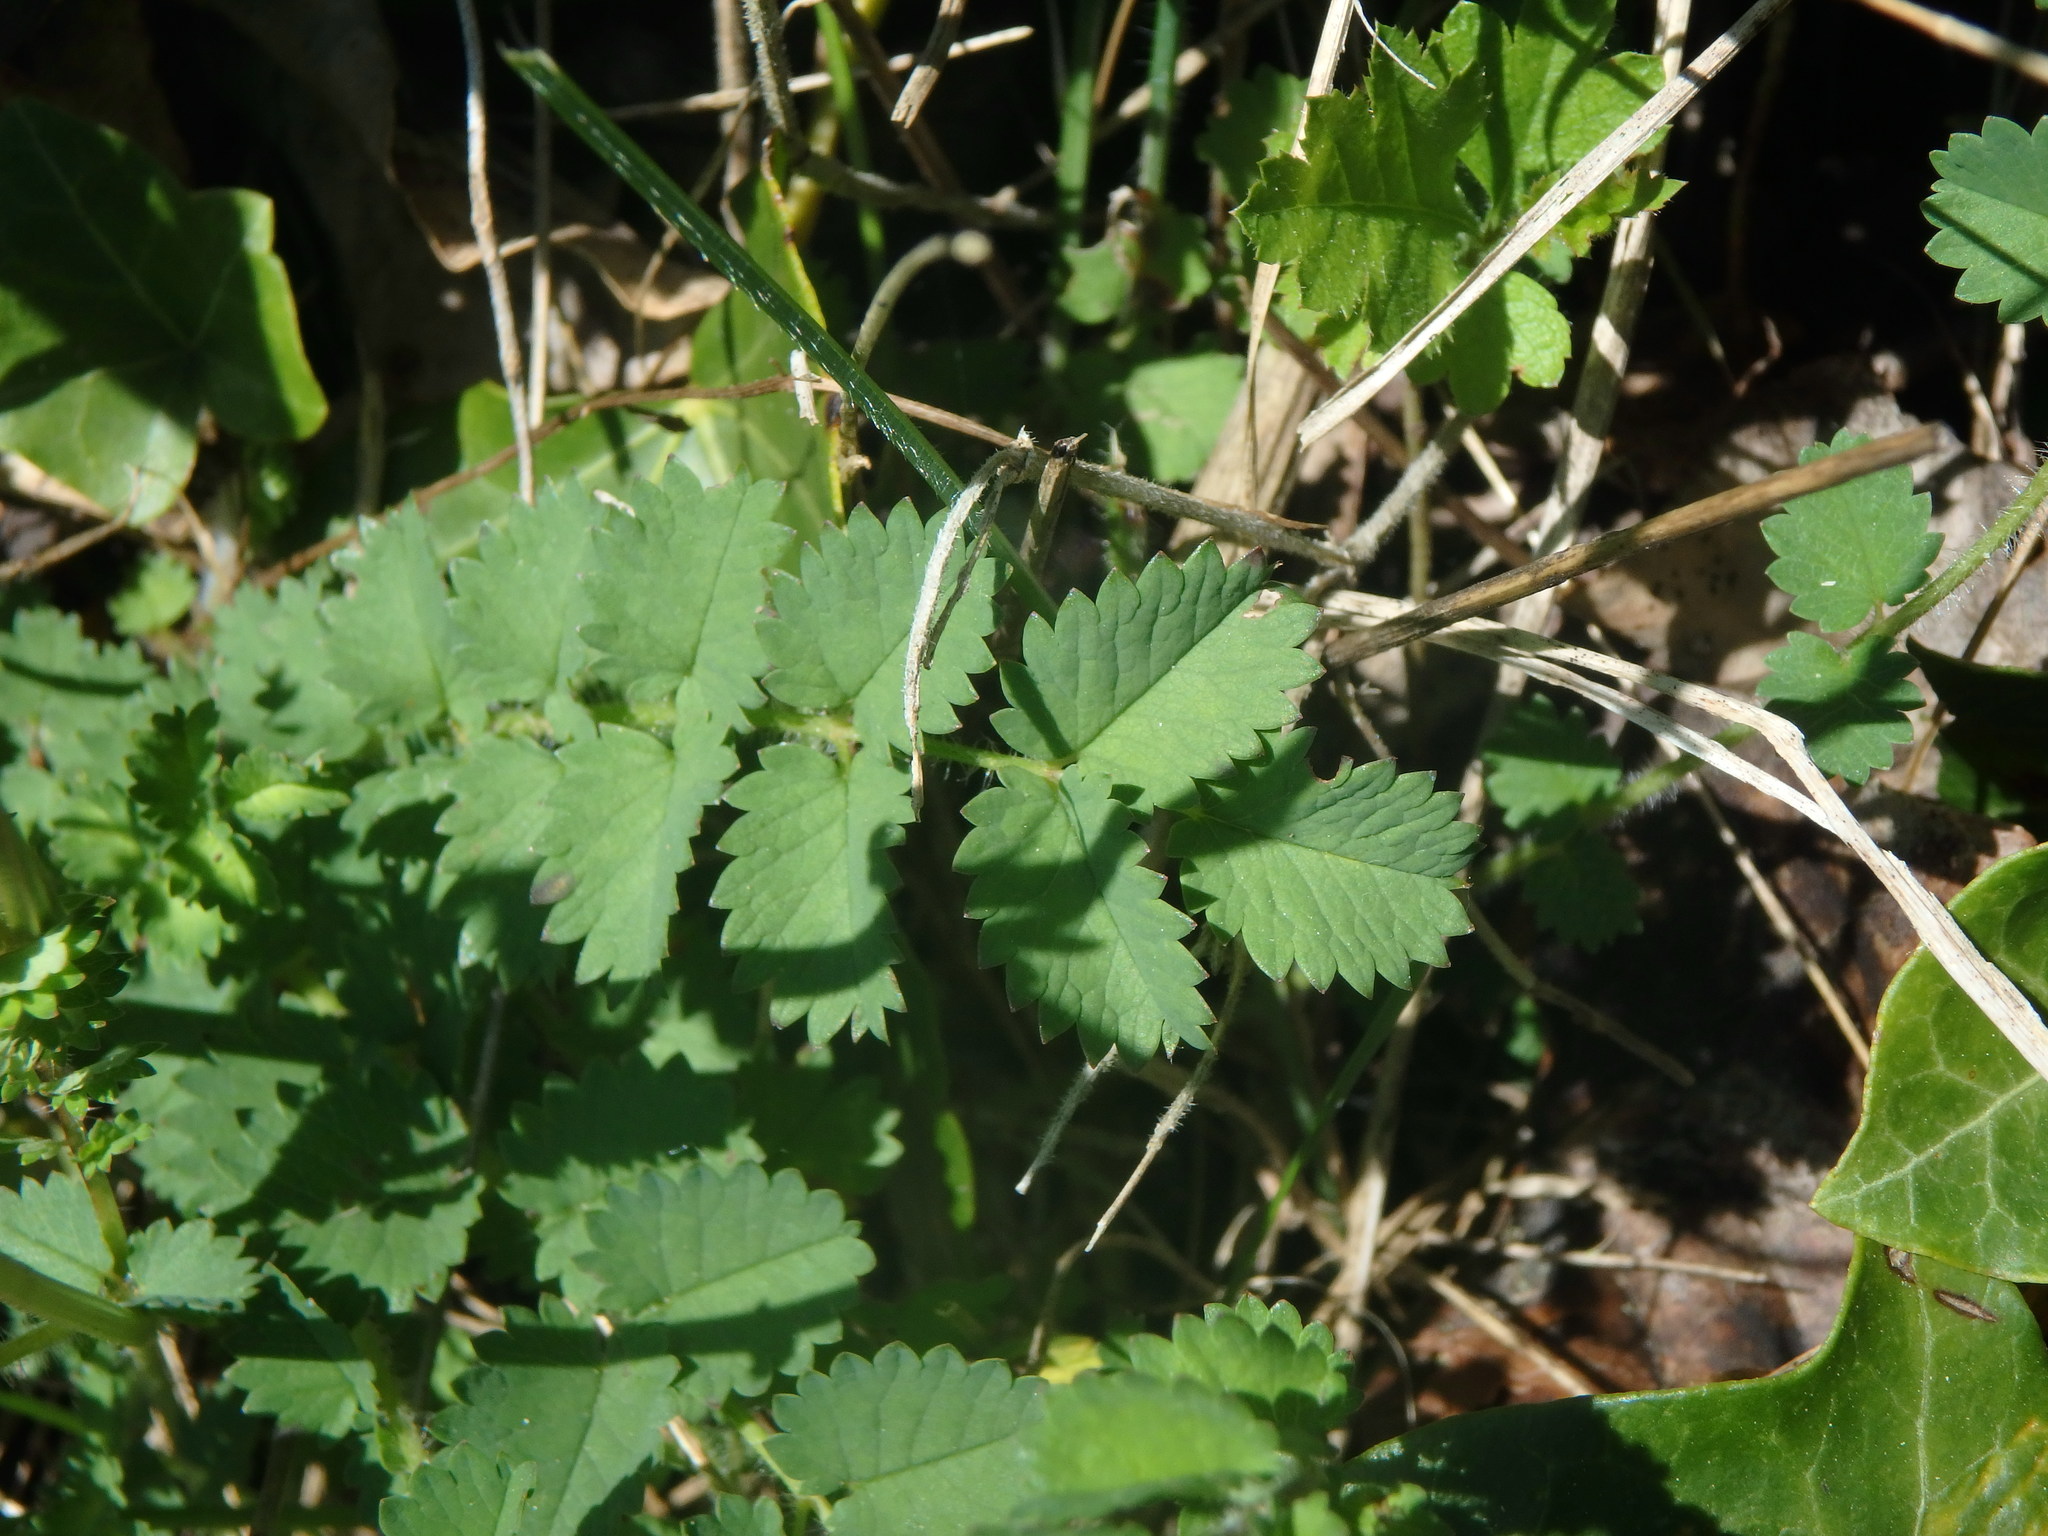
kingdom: Plantae
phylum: Tracheophyta
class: Magnoliopsida
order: Rosales
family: Rosaceae
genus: Poterium
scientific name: Poterium sanguisorba
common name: Salad burnet
